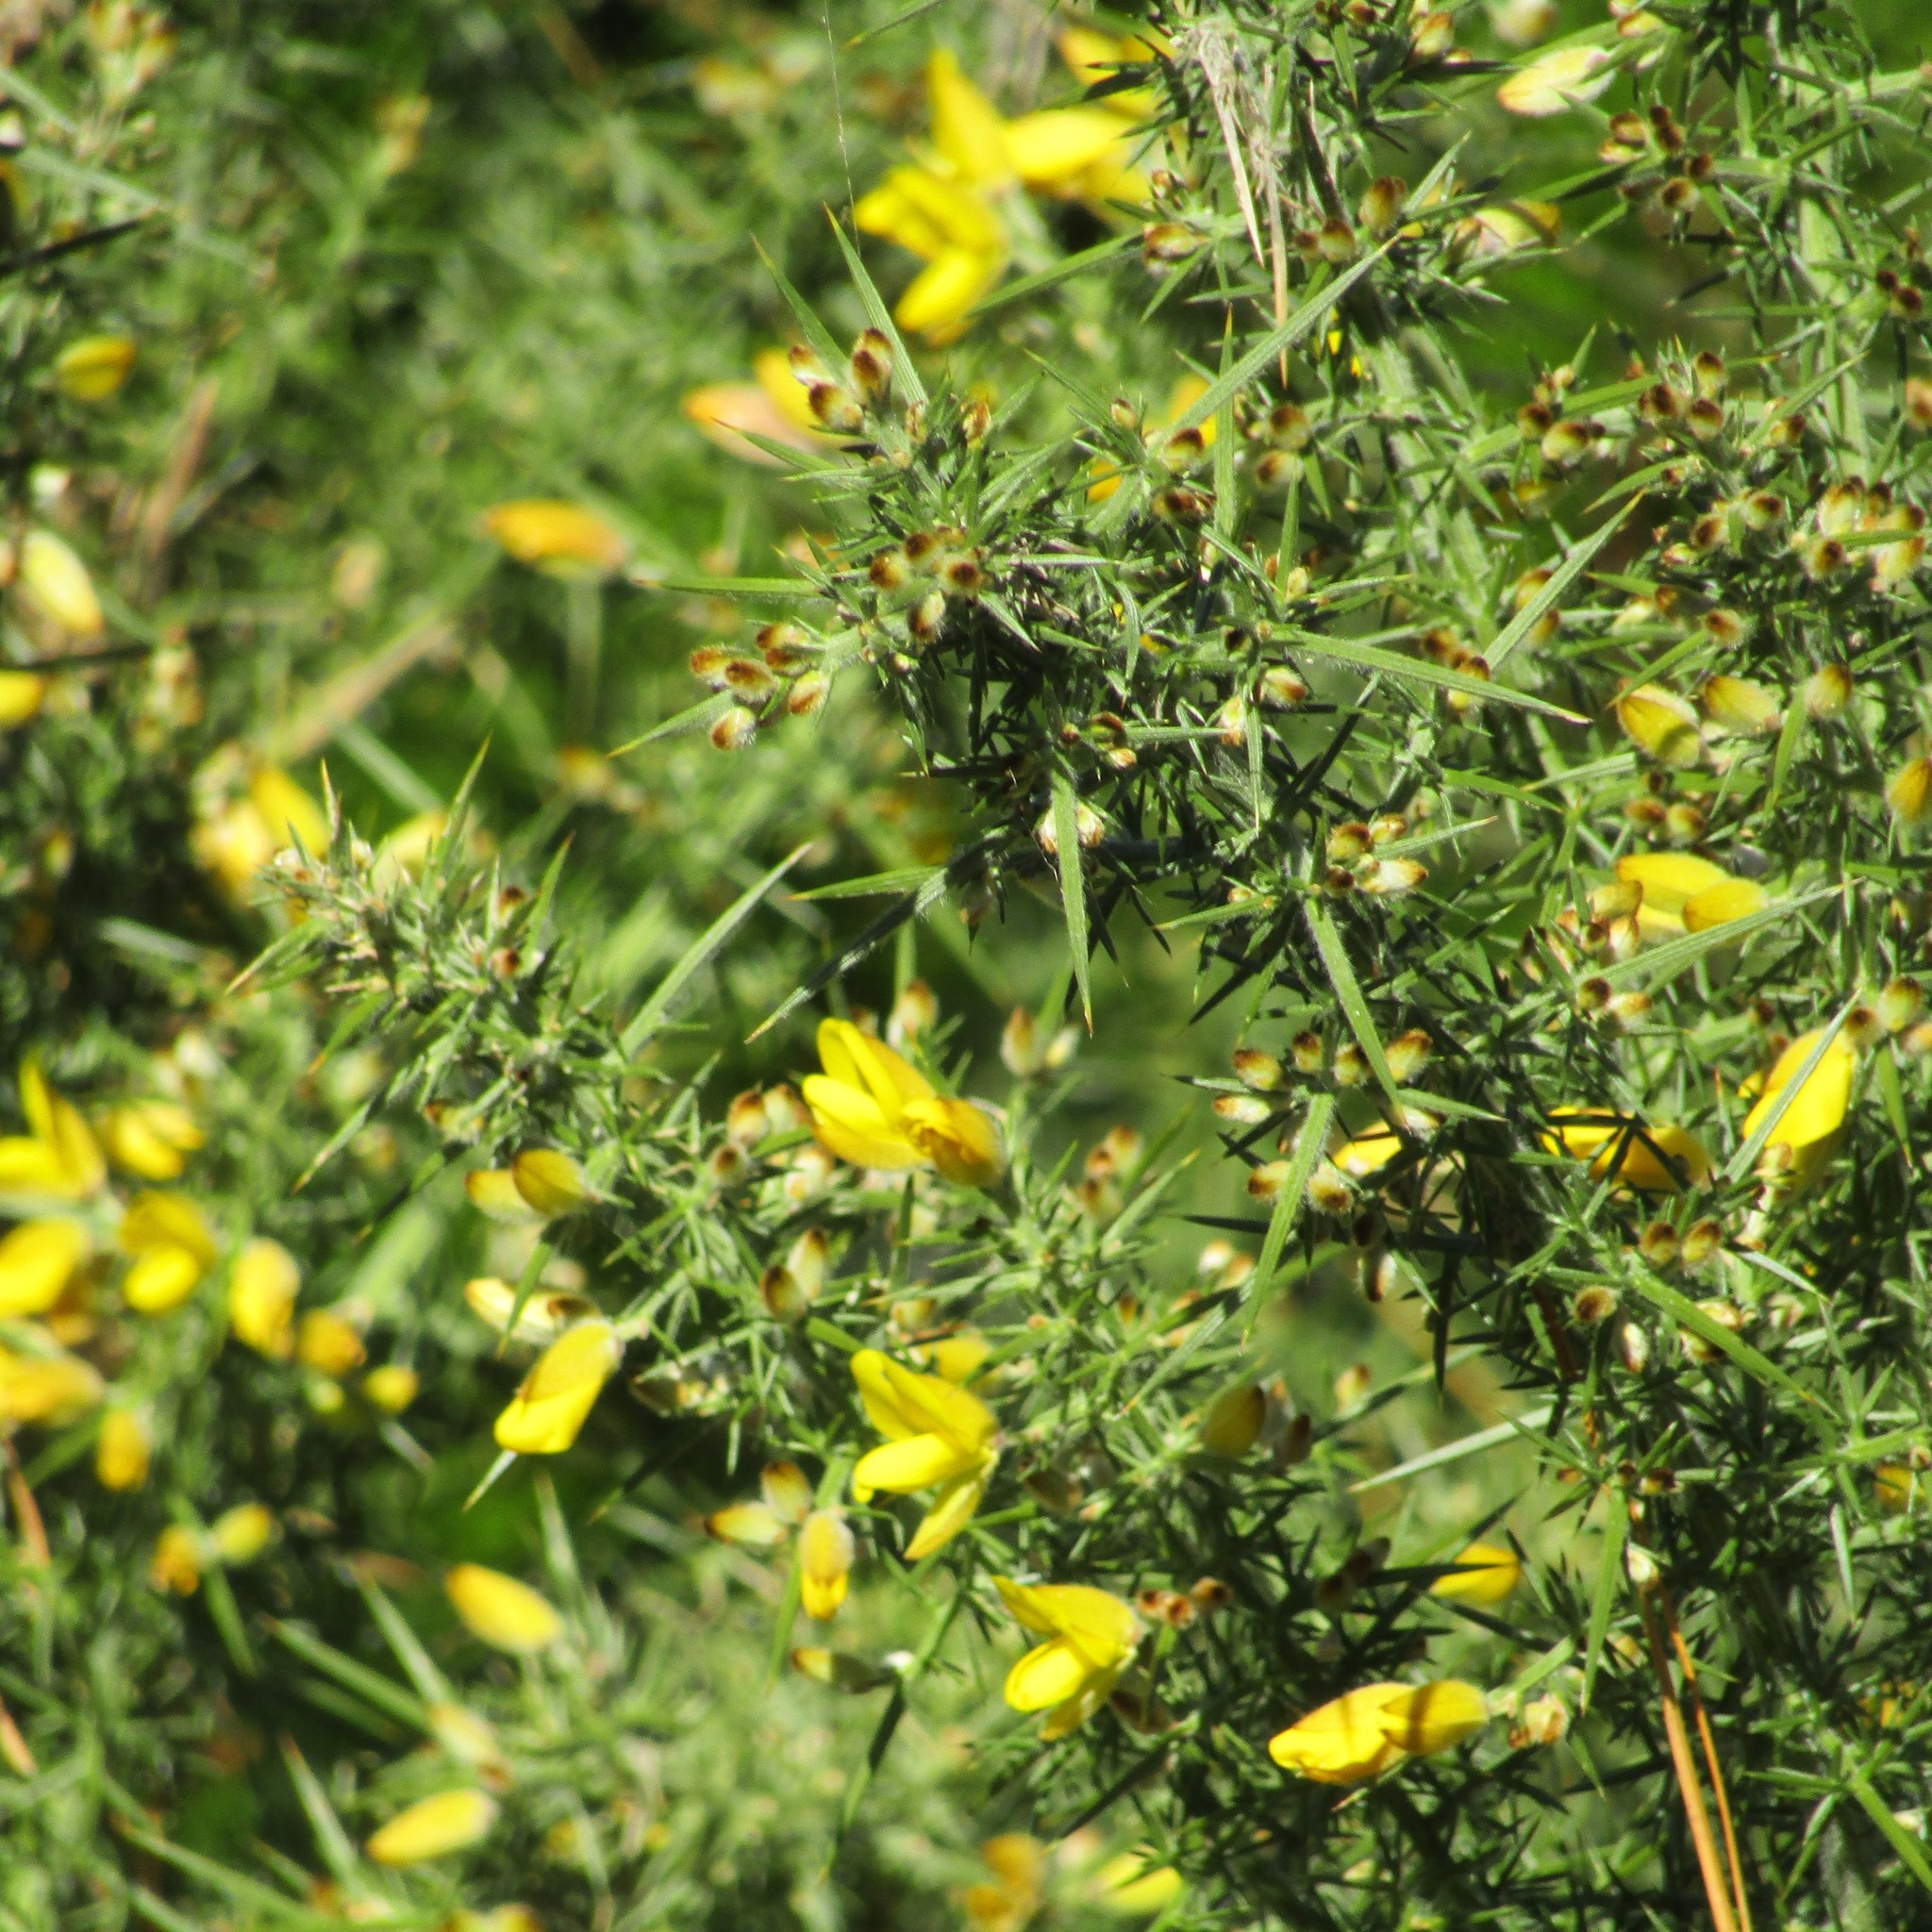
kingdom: Plantae
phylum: Tracheophyta
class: Magnoliopsida
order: Fabales
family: Fabaceae
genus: Ulex
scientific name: Ulex europaeus
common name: Common gorse
